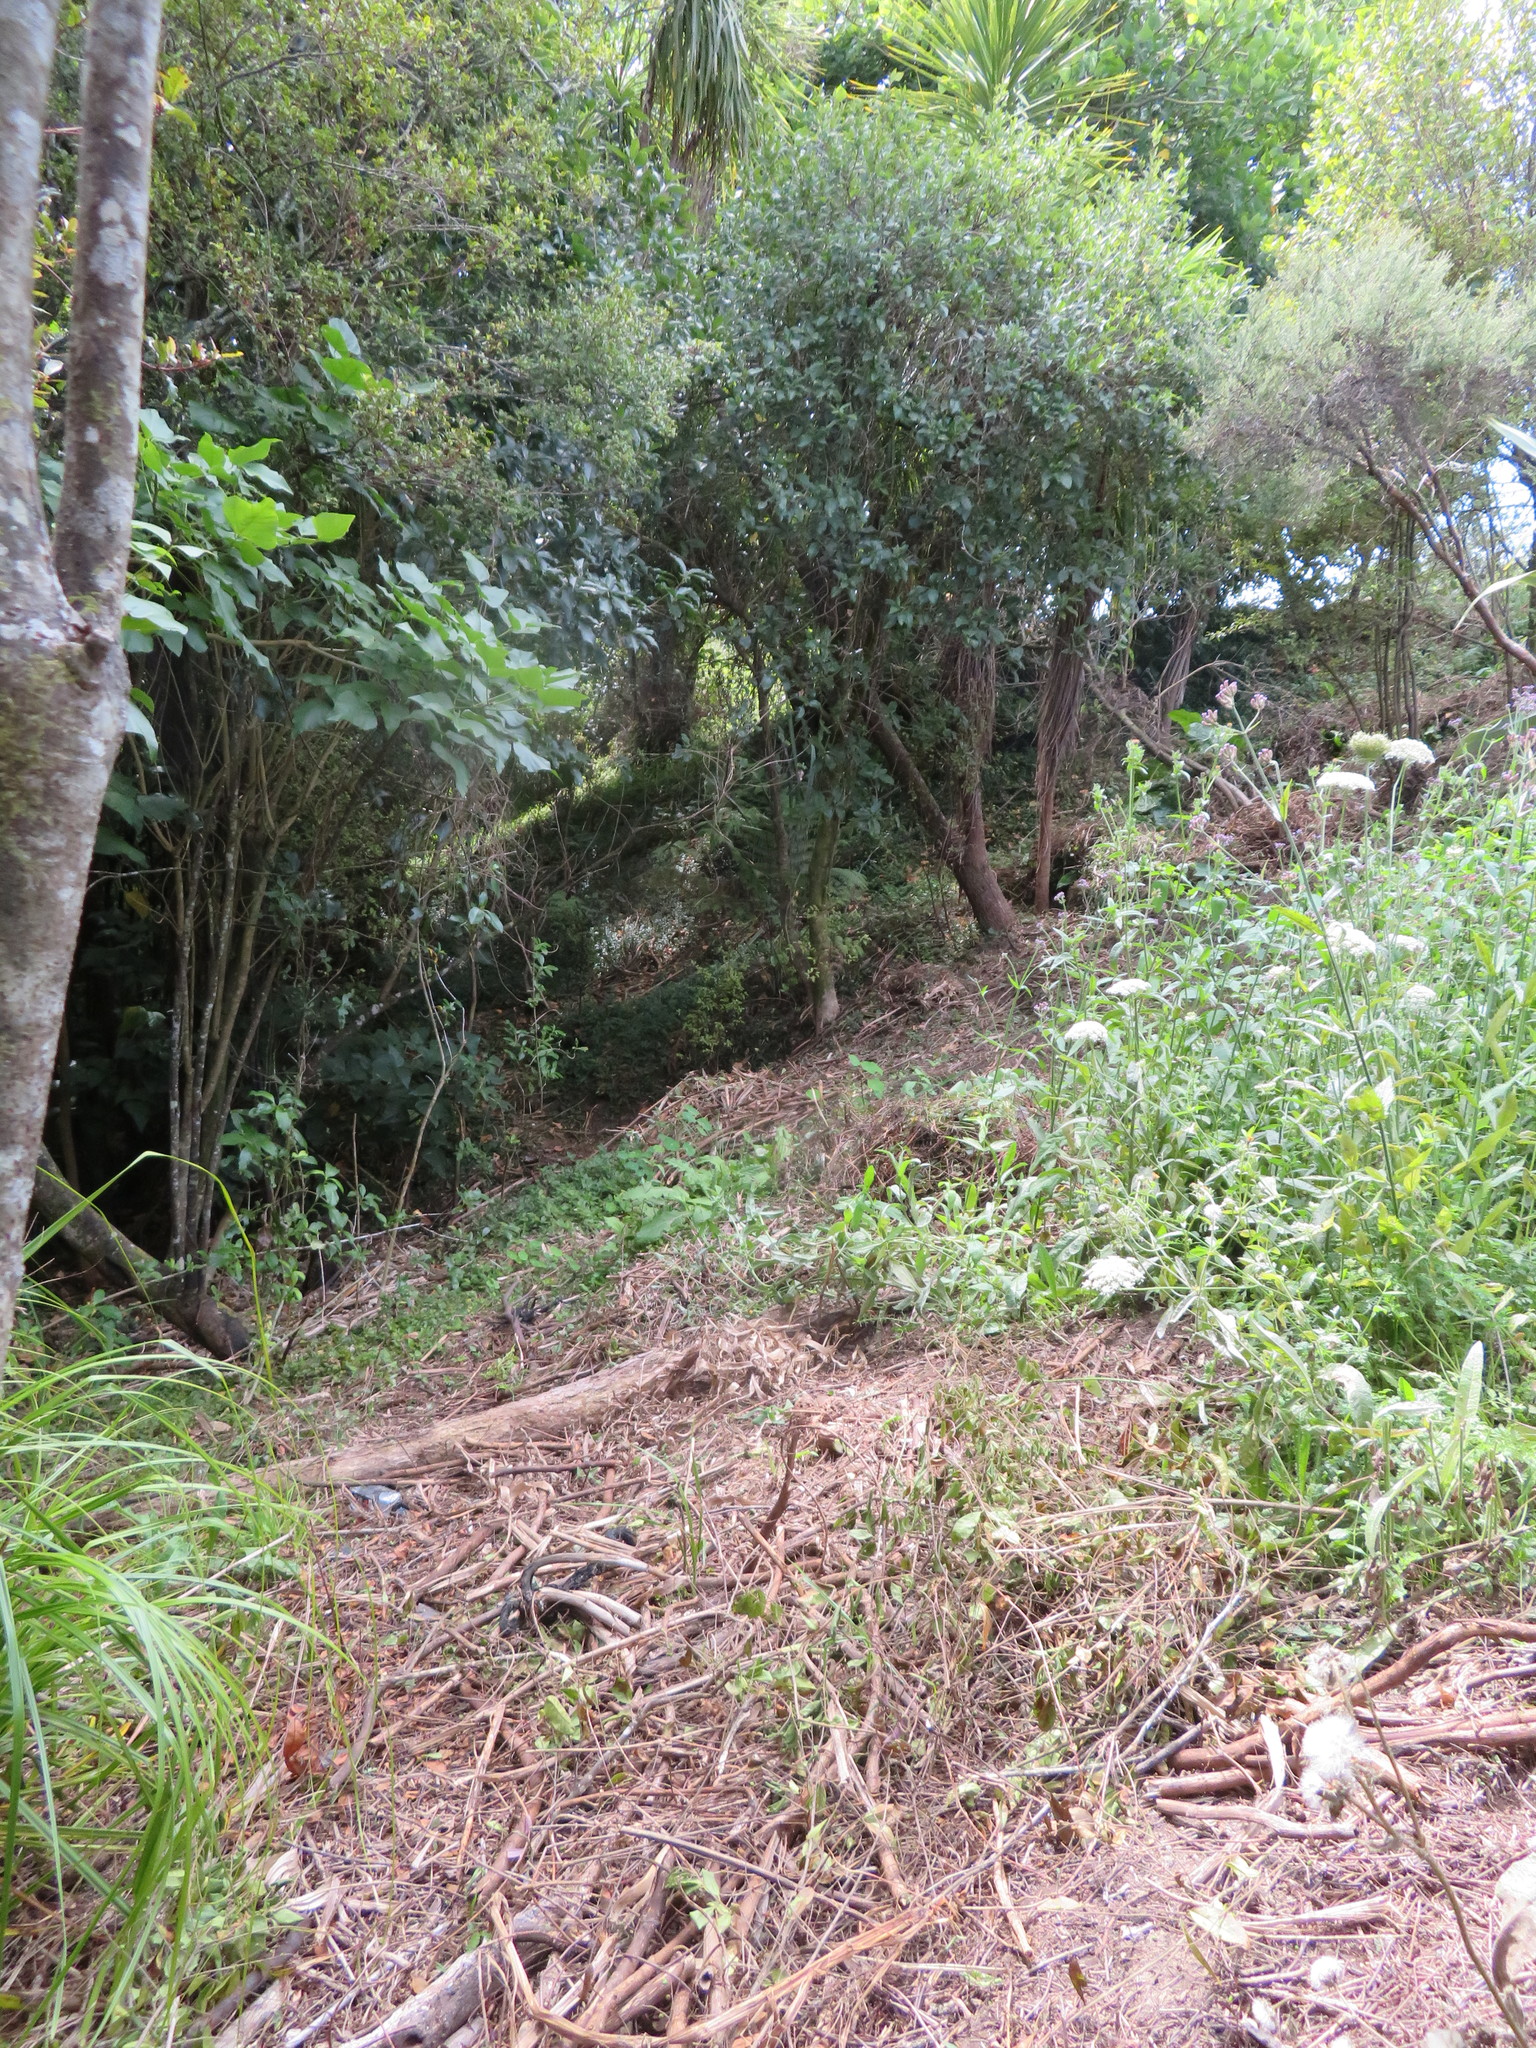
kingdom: Plantae
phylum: Tracheophyta
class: Magnoliopsida
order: Lamiales
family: Oleaceae
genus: Ligustrum
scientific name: Ligustrum sinense
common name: Chinese privet
